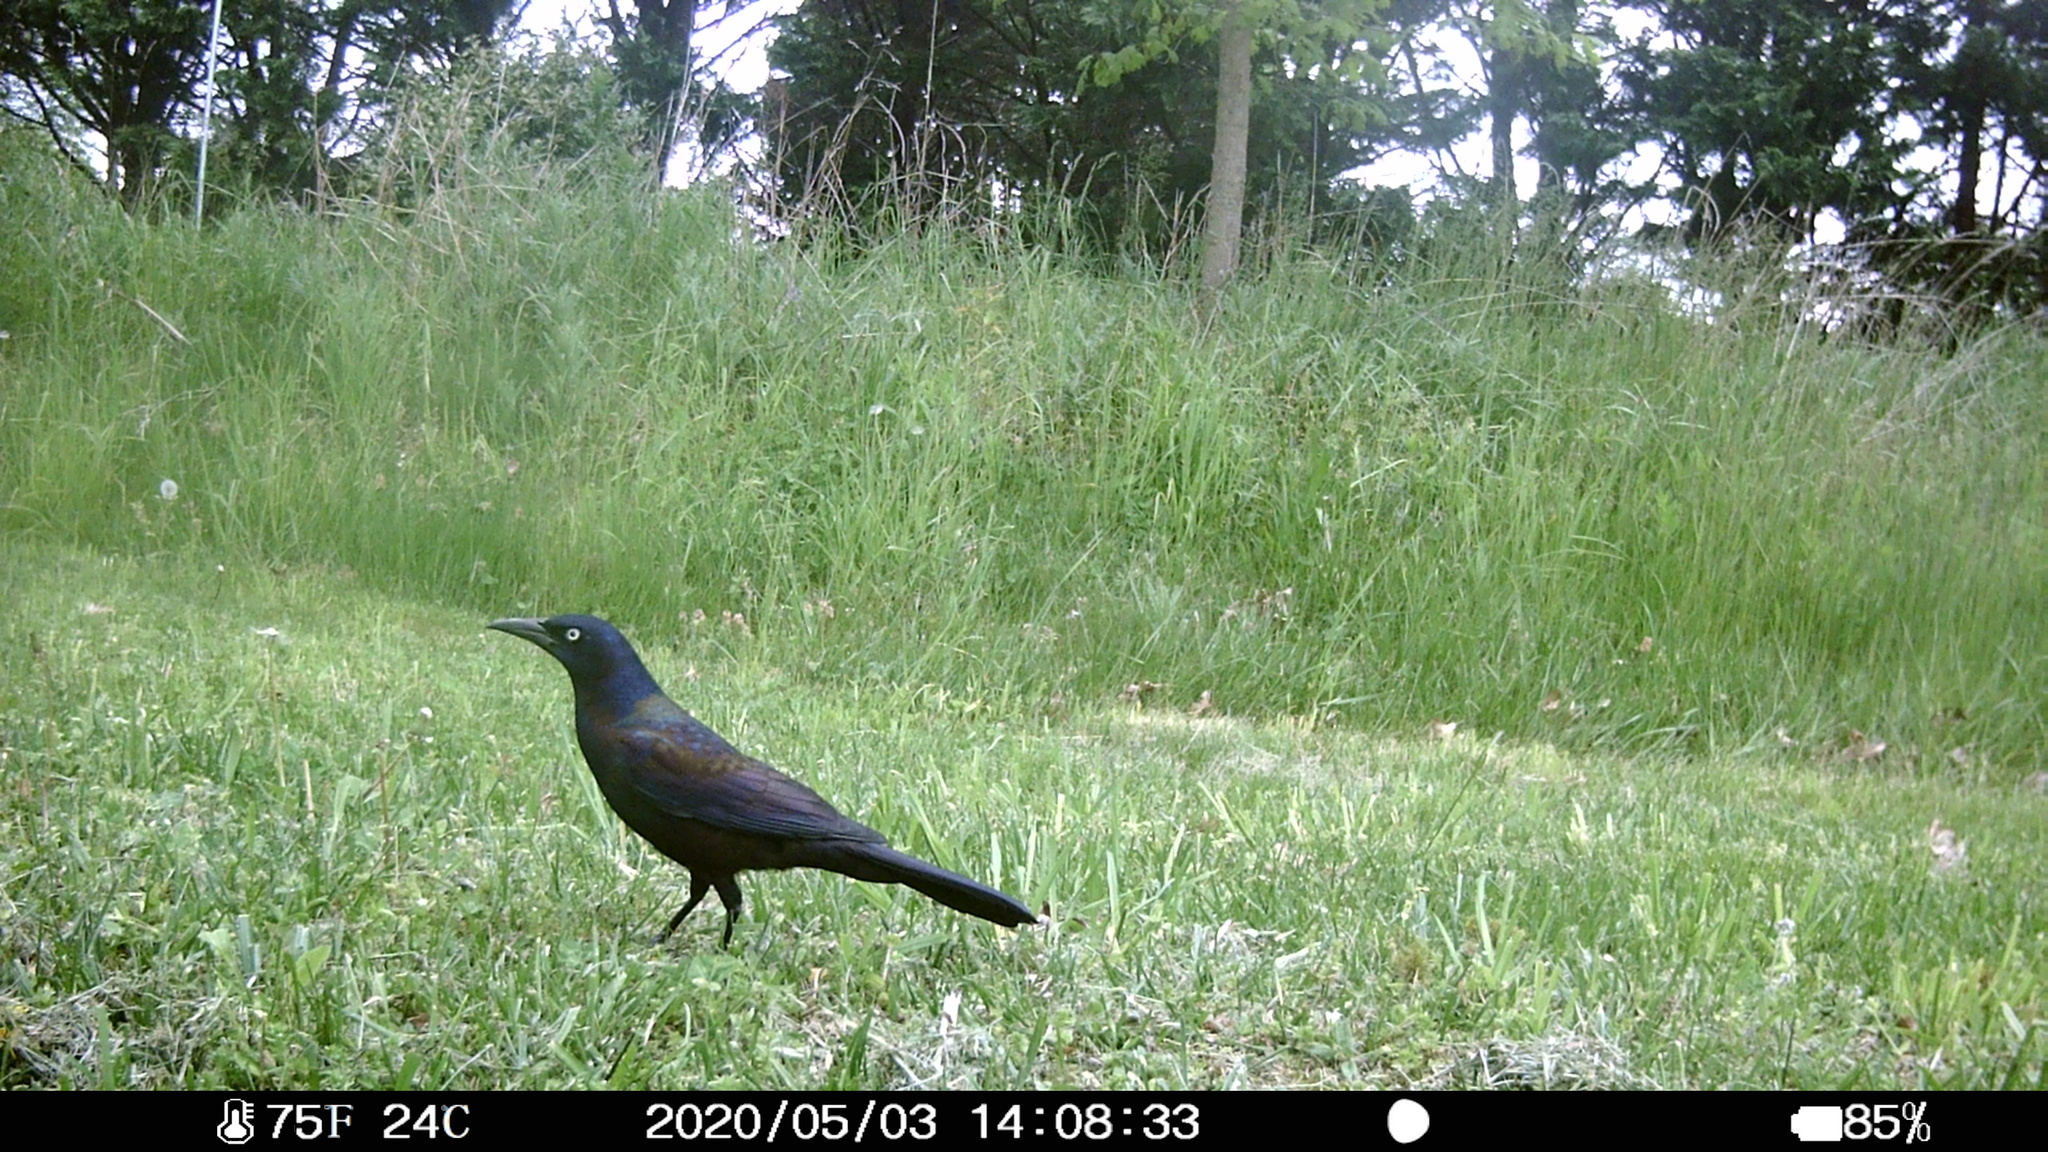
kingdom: Animalia
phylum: Chordata
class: Aves
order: Passeriformes
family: Icteridae
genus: Quiscalus
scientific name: Quiscalus quiscula
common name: Common grackle
